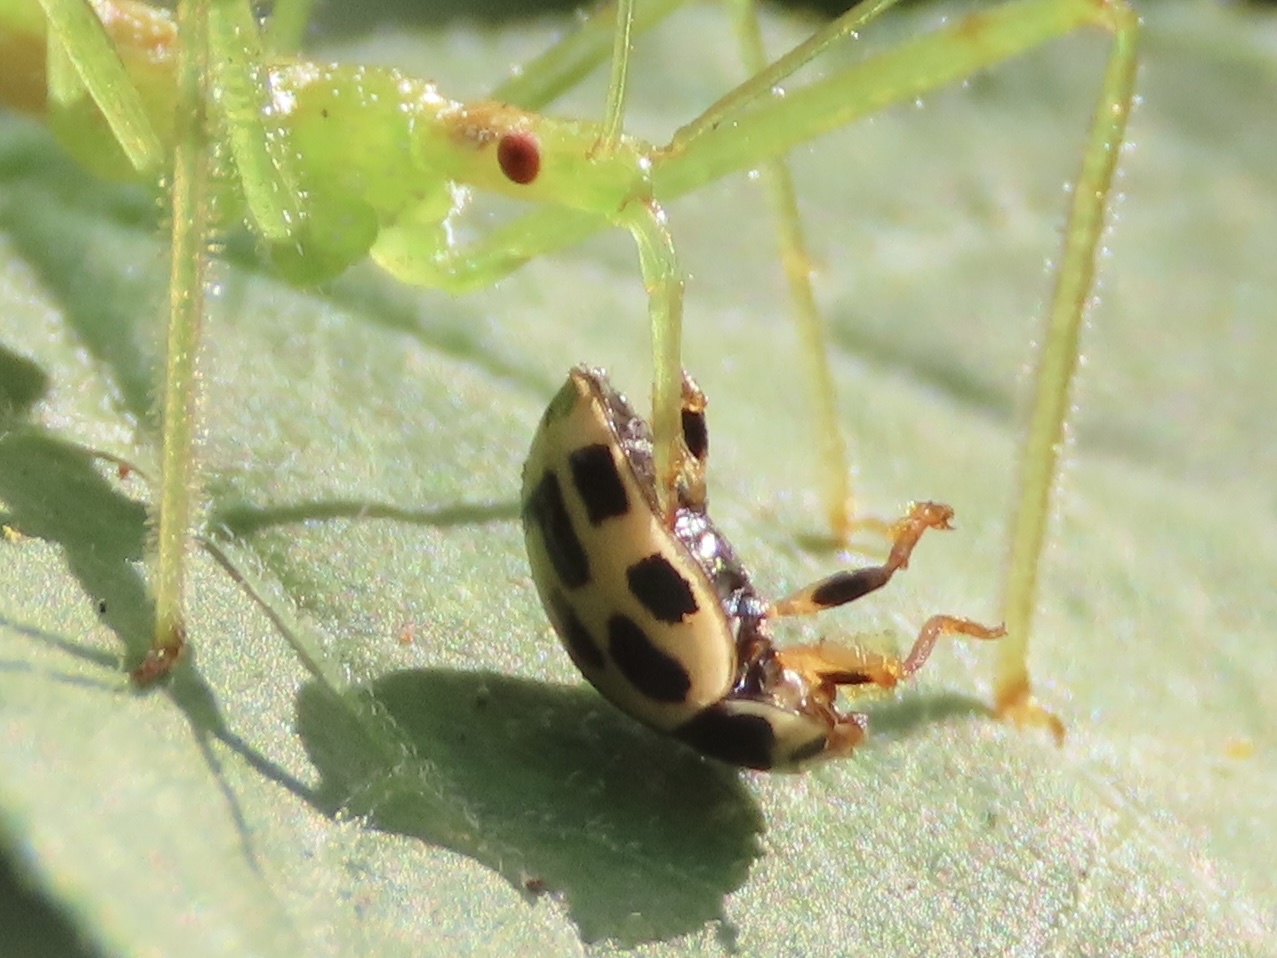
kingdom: Animalia
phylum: Arthropoda
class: Insecta
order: Coleoptera
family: Coccinellidae
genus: Propylaea
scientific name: Propylaea quatuordecimpunctata
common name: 14-spotted ladybird beetle
